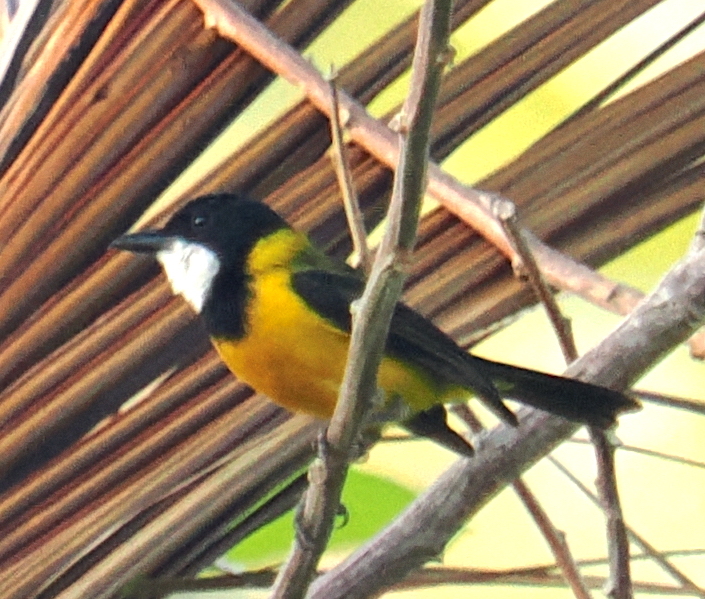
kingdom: Animalia
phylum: Chordata
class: Aves
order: Passeriformes
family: Pachycephalidae
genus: Pachycephala
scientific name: Pachycephala fulvotincta
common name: Rusty-breasted whistler
